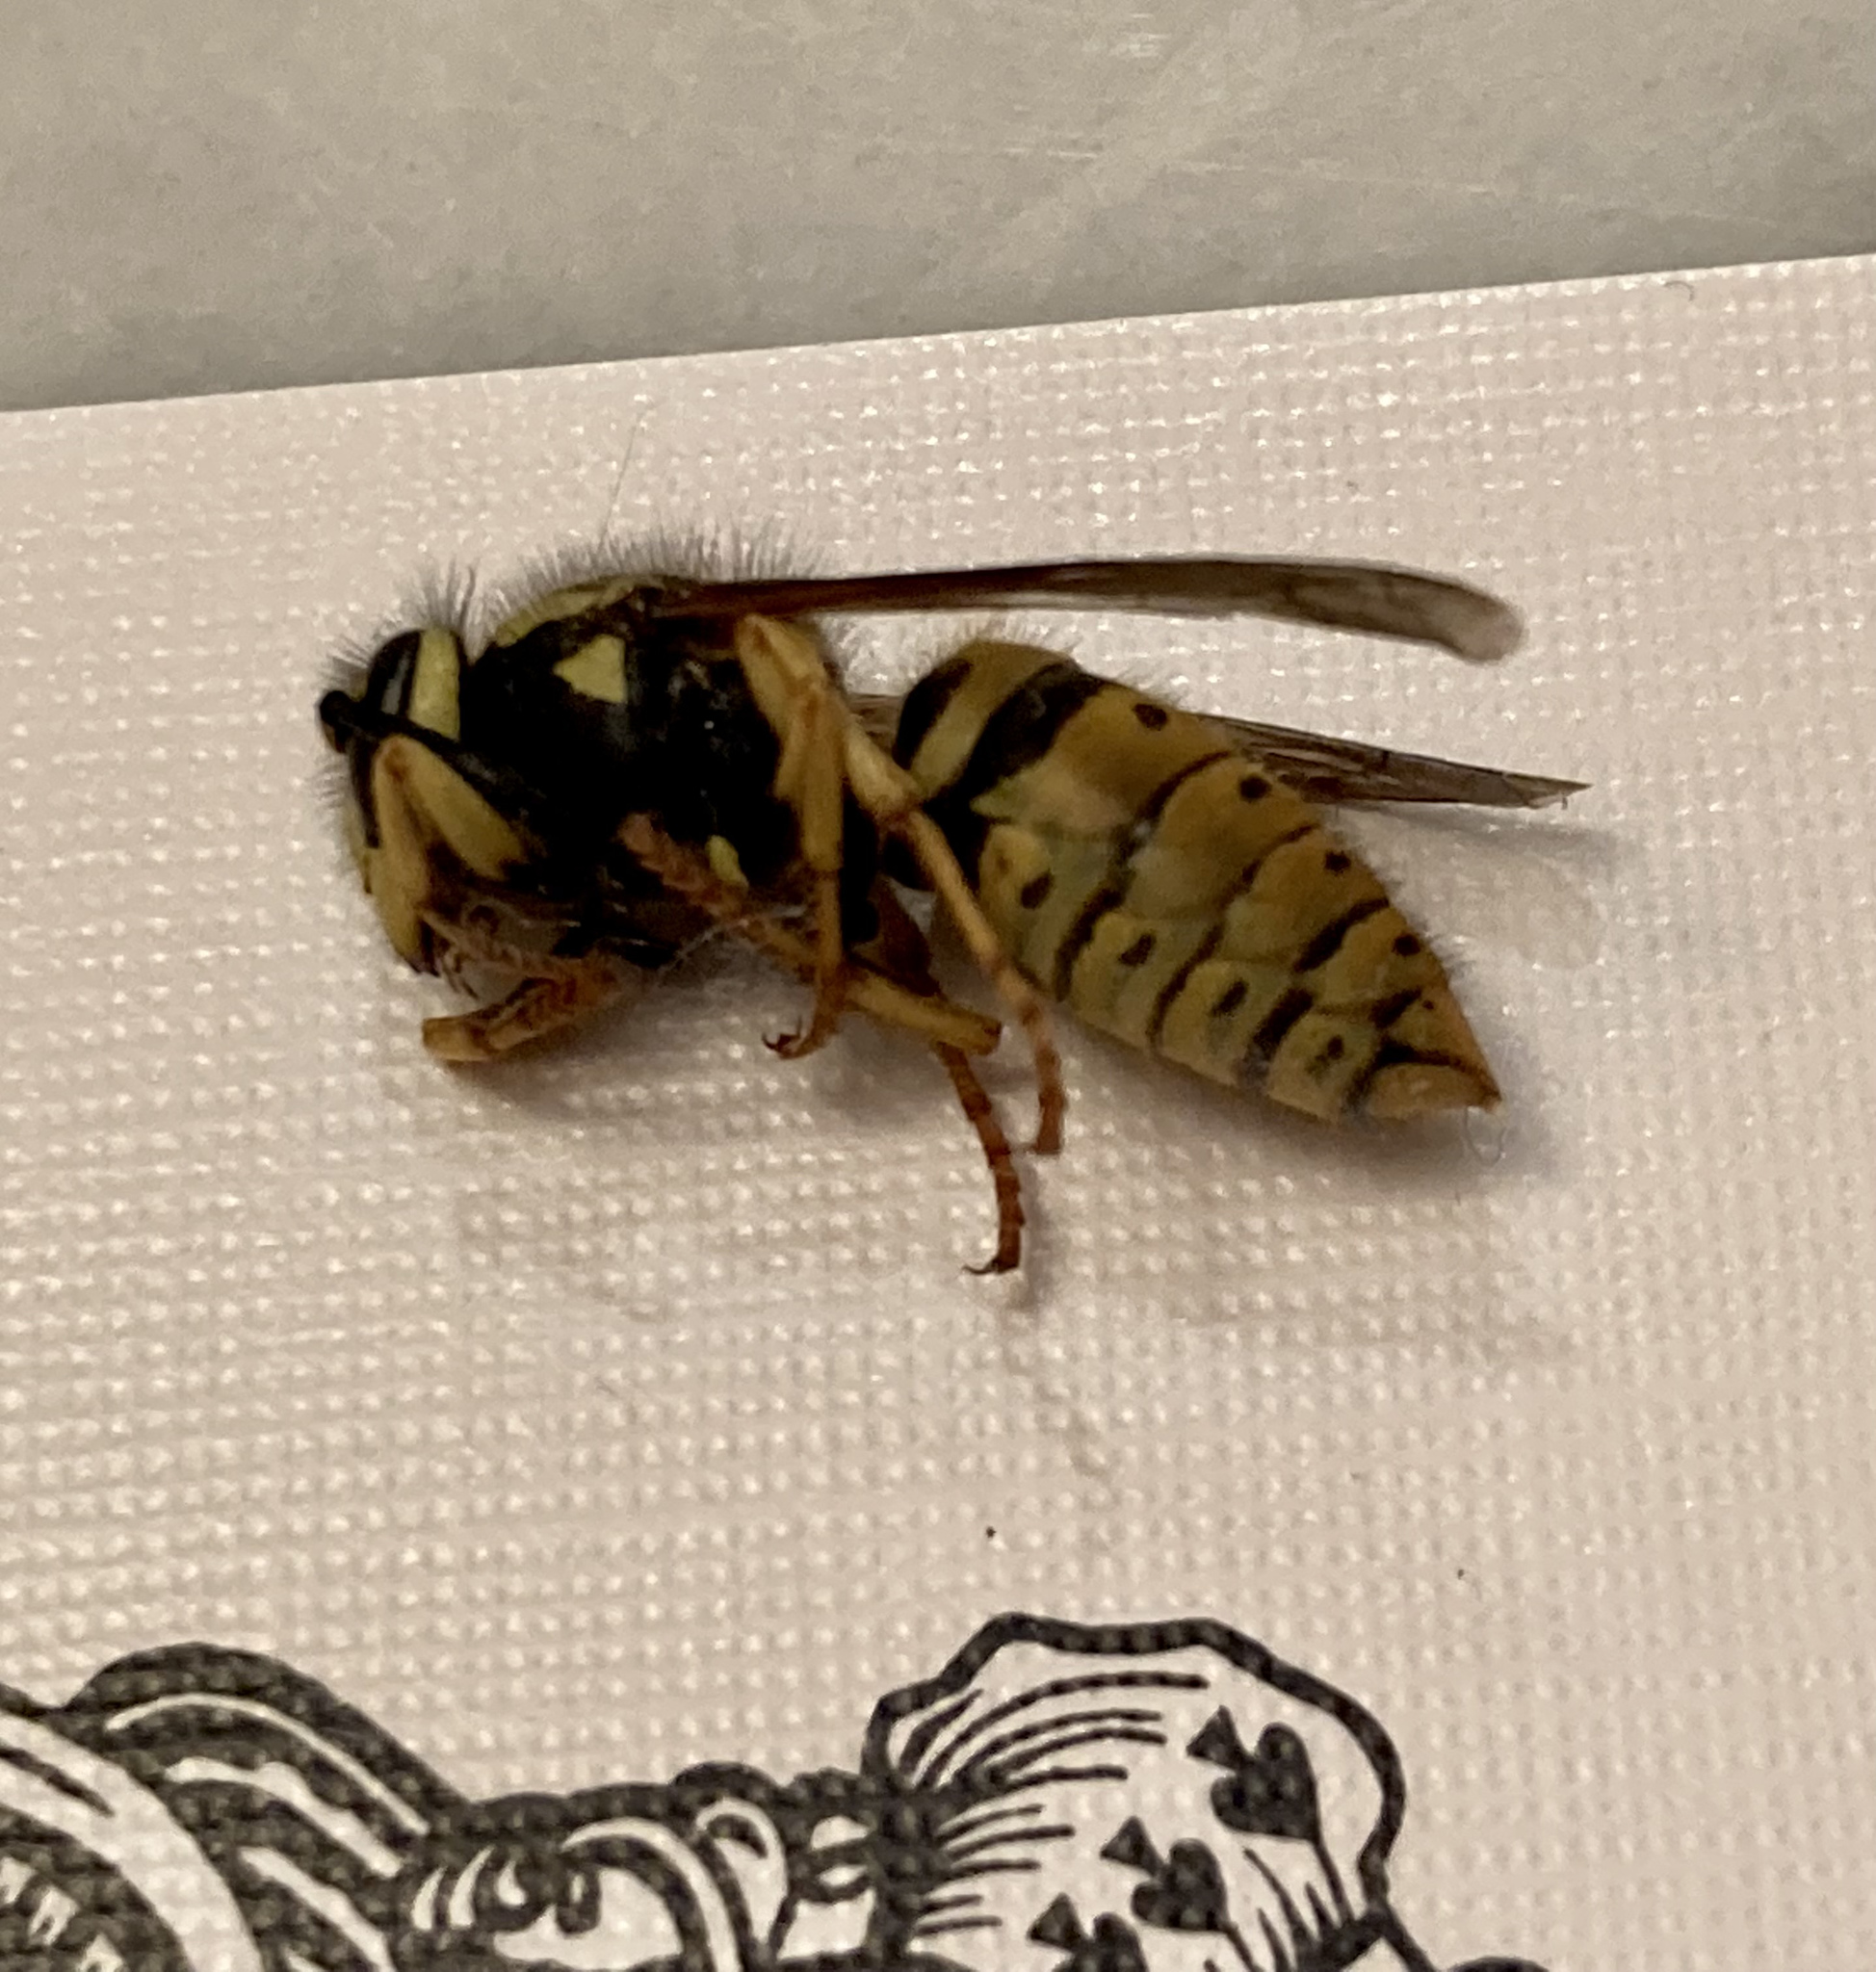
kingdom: Animalia
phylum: Arthropoda
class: Insecta
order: Hymenoptera
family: Vespidae
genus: Vespula
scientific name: Vespula pensylvanica
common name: Western yellowjacket
